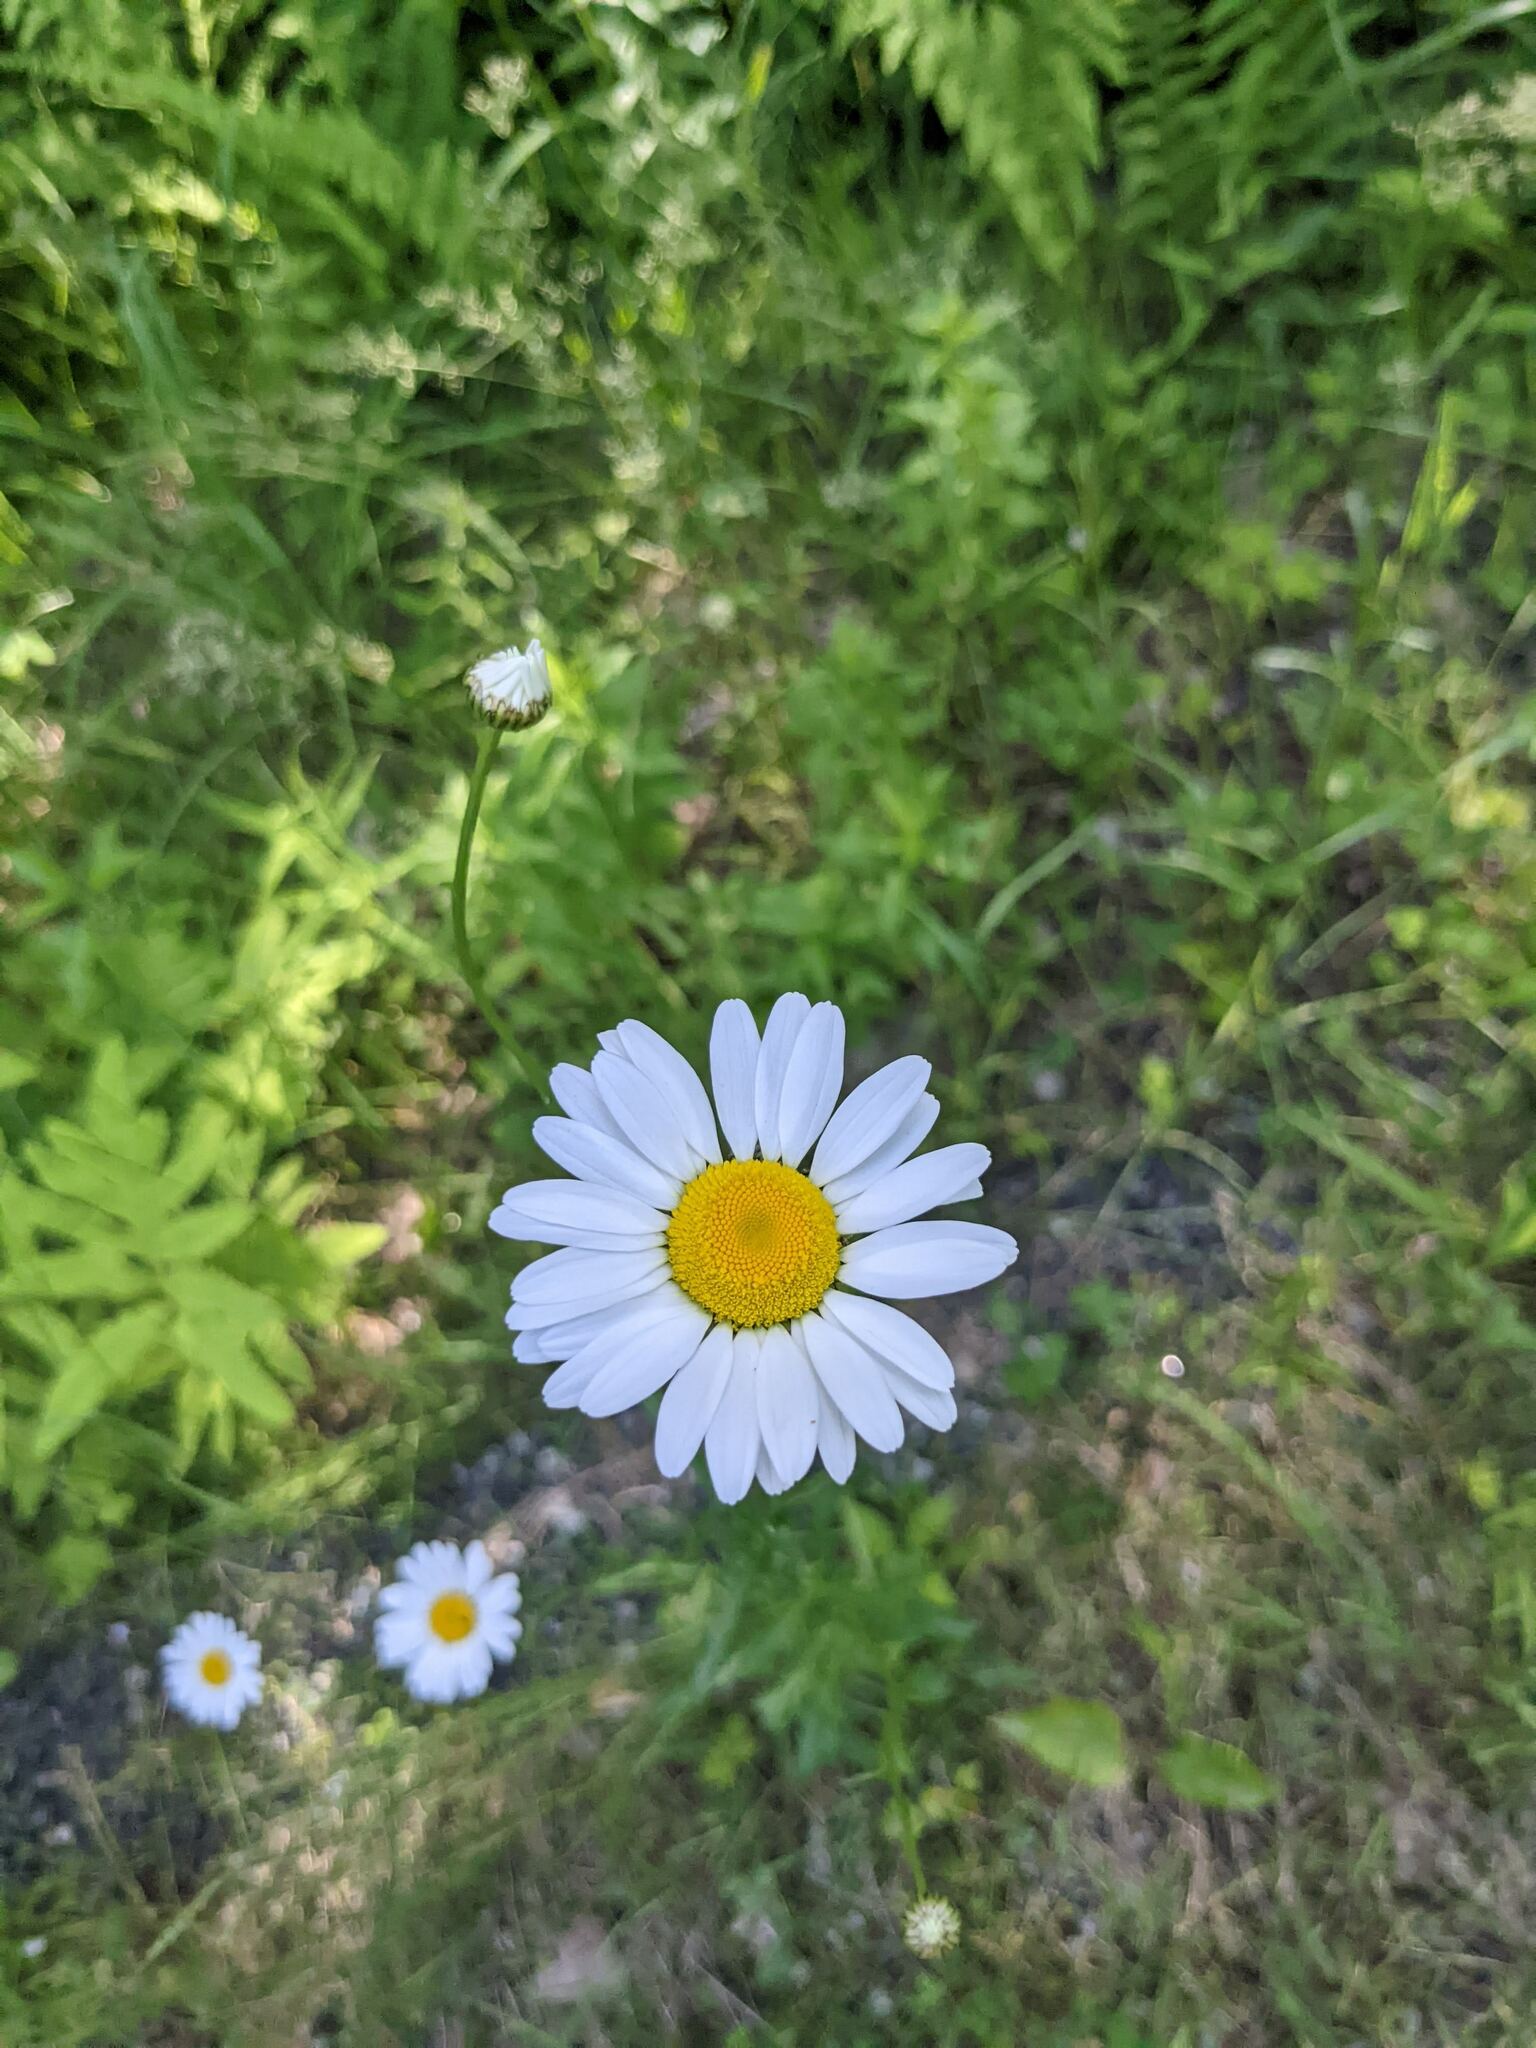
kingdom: Plantae
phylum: Tracheophyta
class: Magnoliopsida
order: Asterales
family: Asteraceae
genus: Leucanthemum
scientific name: Leucanthemum vulgare
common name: Oxeye daisy
